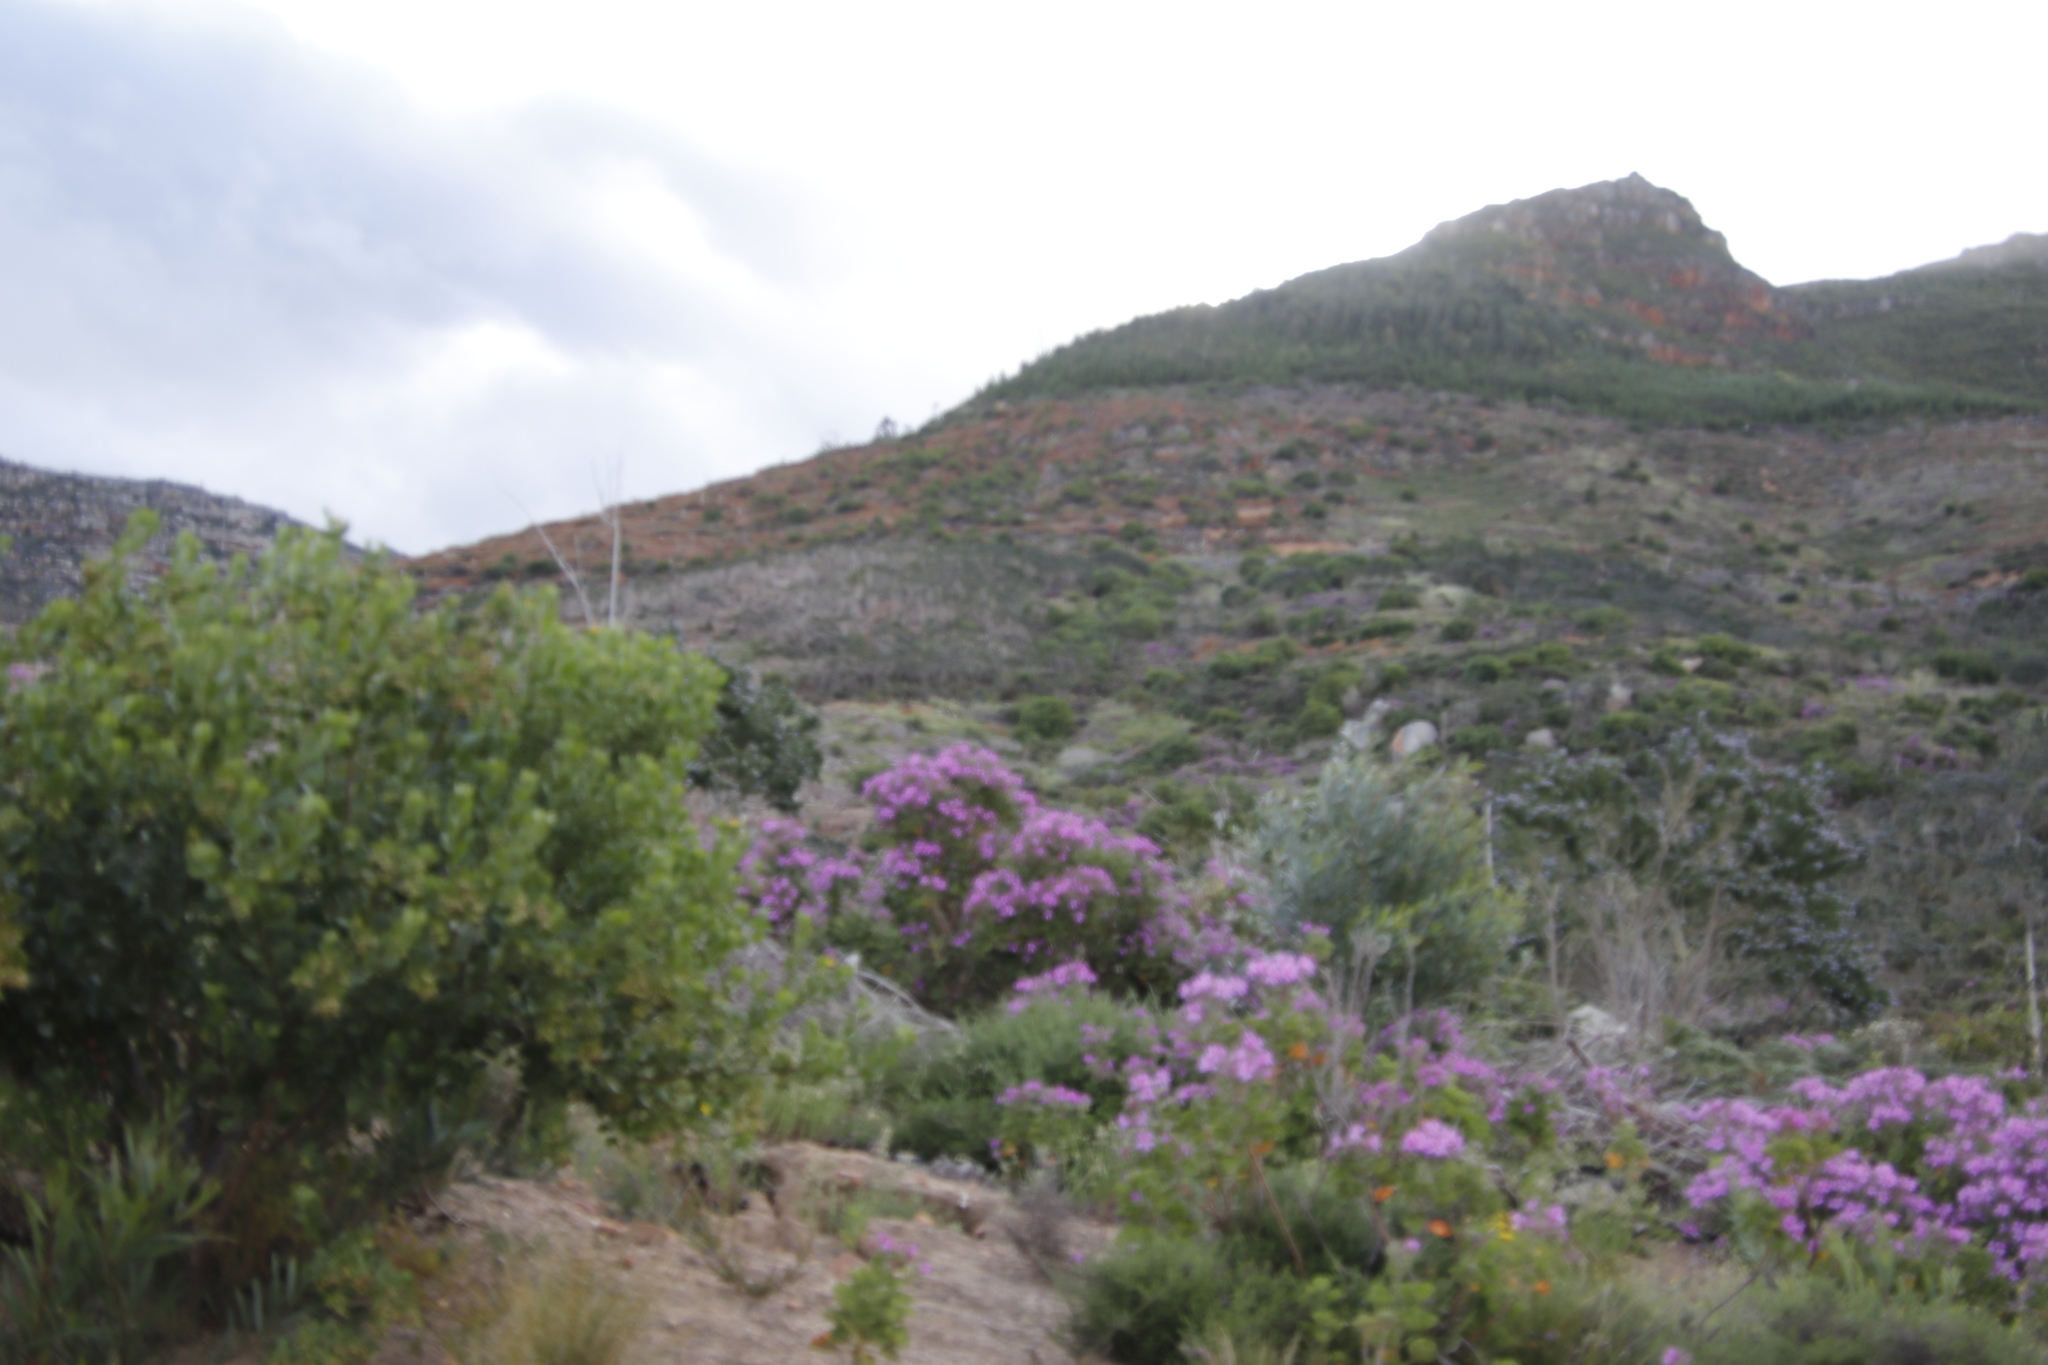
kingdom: Plantae
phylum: Tracheophyta
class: Magnoliopsida
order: Geraniales
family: Geraniaceae
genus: Pelargonium
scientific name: Pelargonium cucullatum
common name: Tree pelargonium
